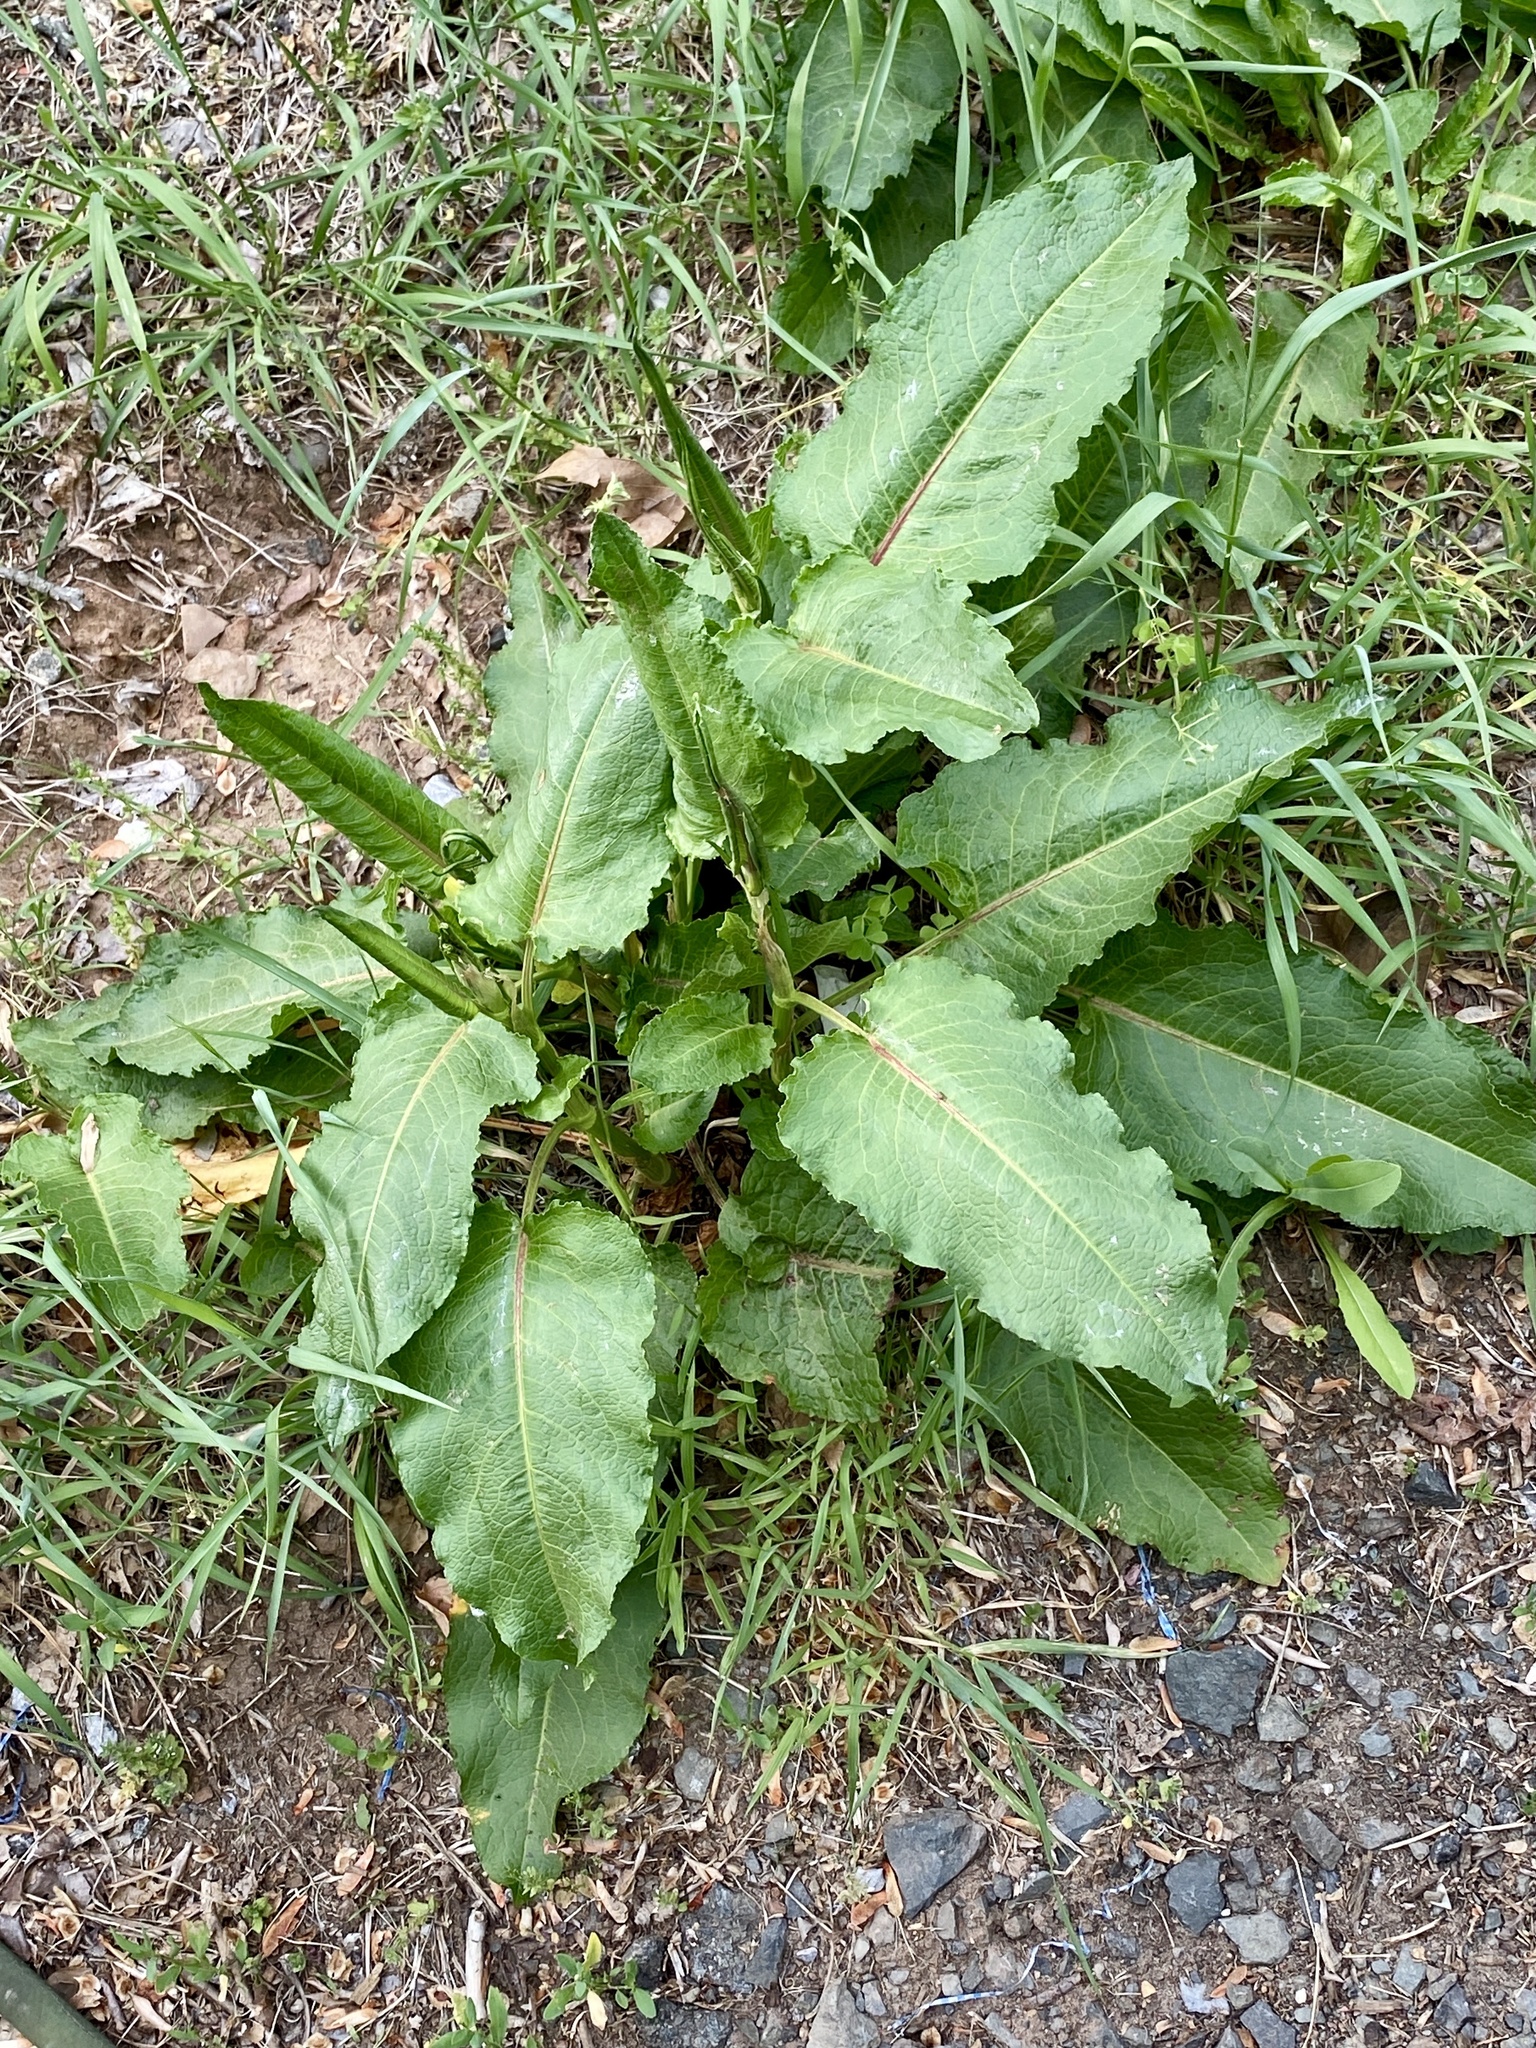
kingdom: Plantae
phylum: Tracheophyta
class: Magnoliopsida
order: Caryophyllales
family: Polygonaceae
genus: Rumex
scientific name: Rumex obtusifolius
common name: Bitter dock
